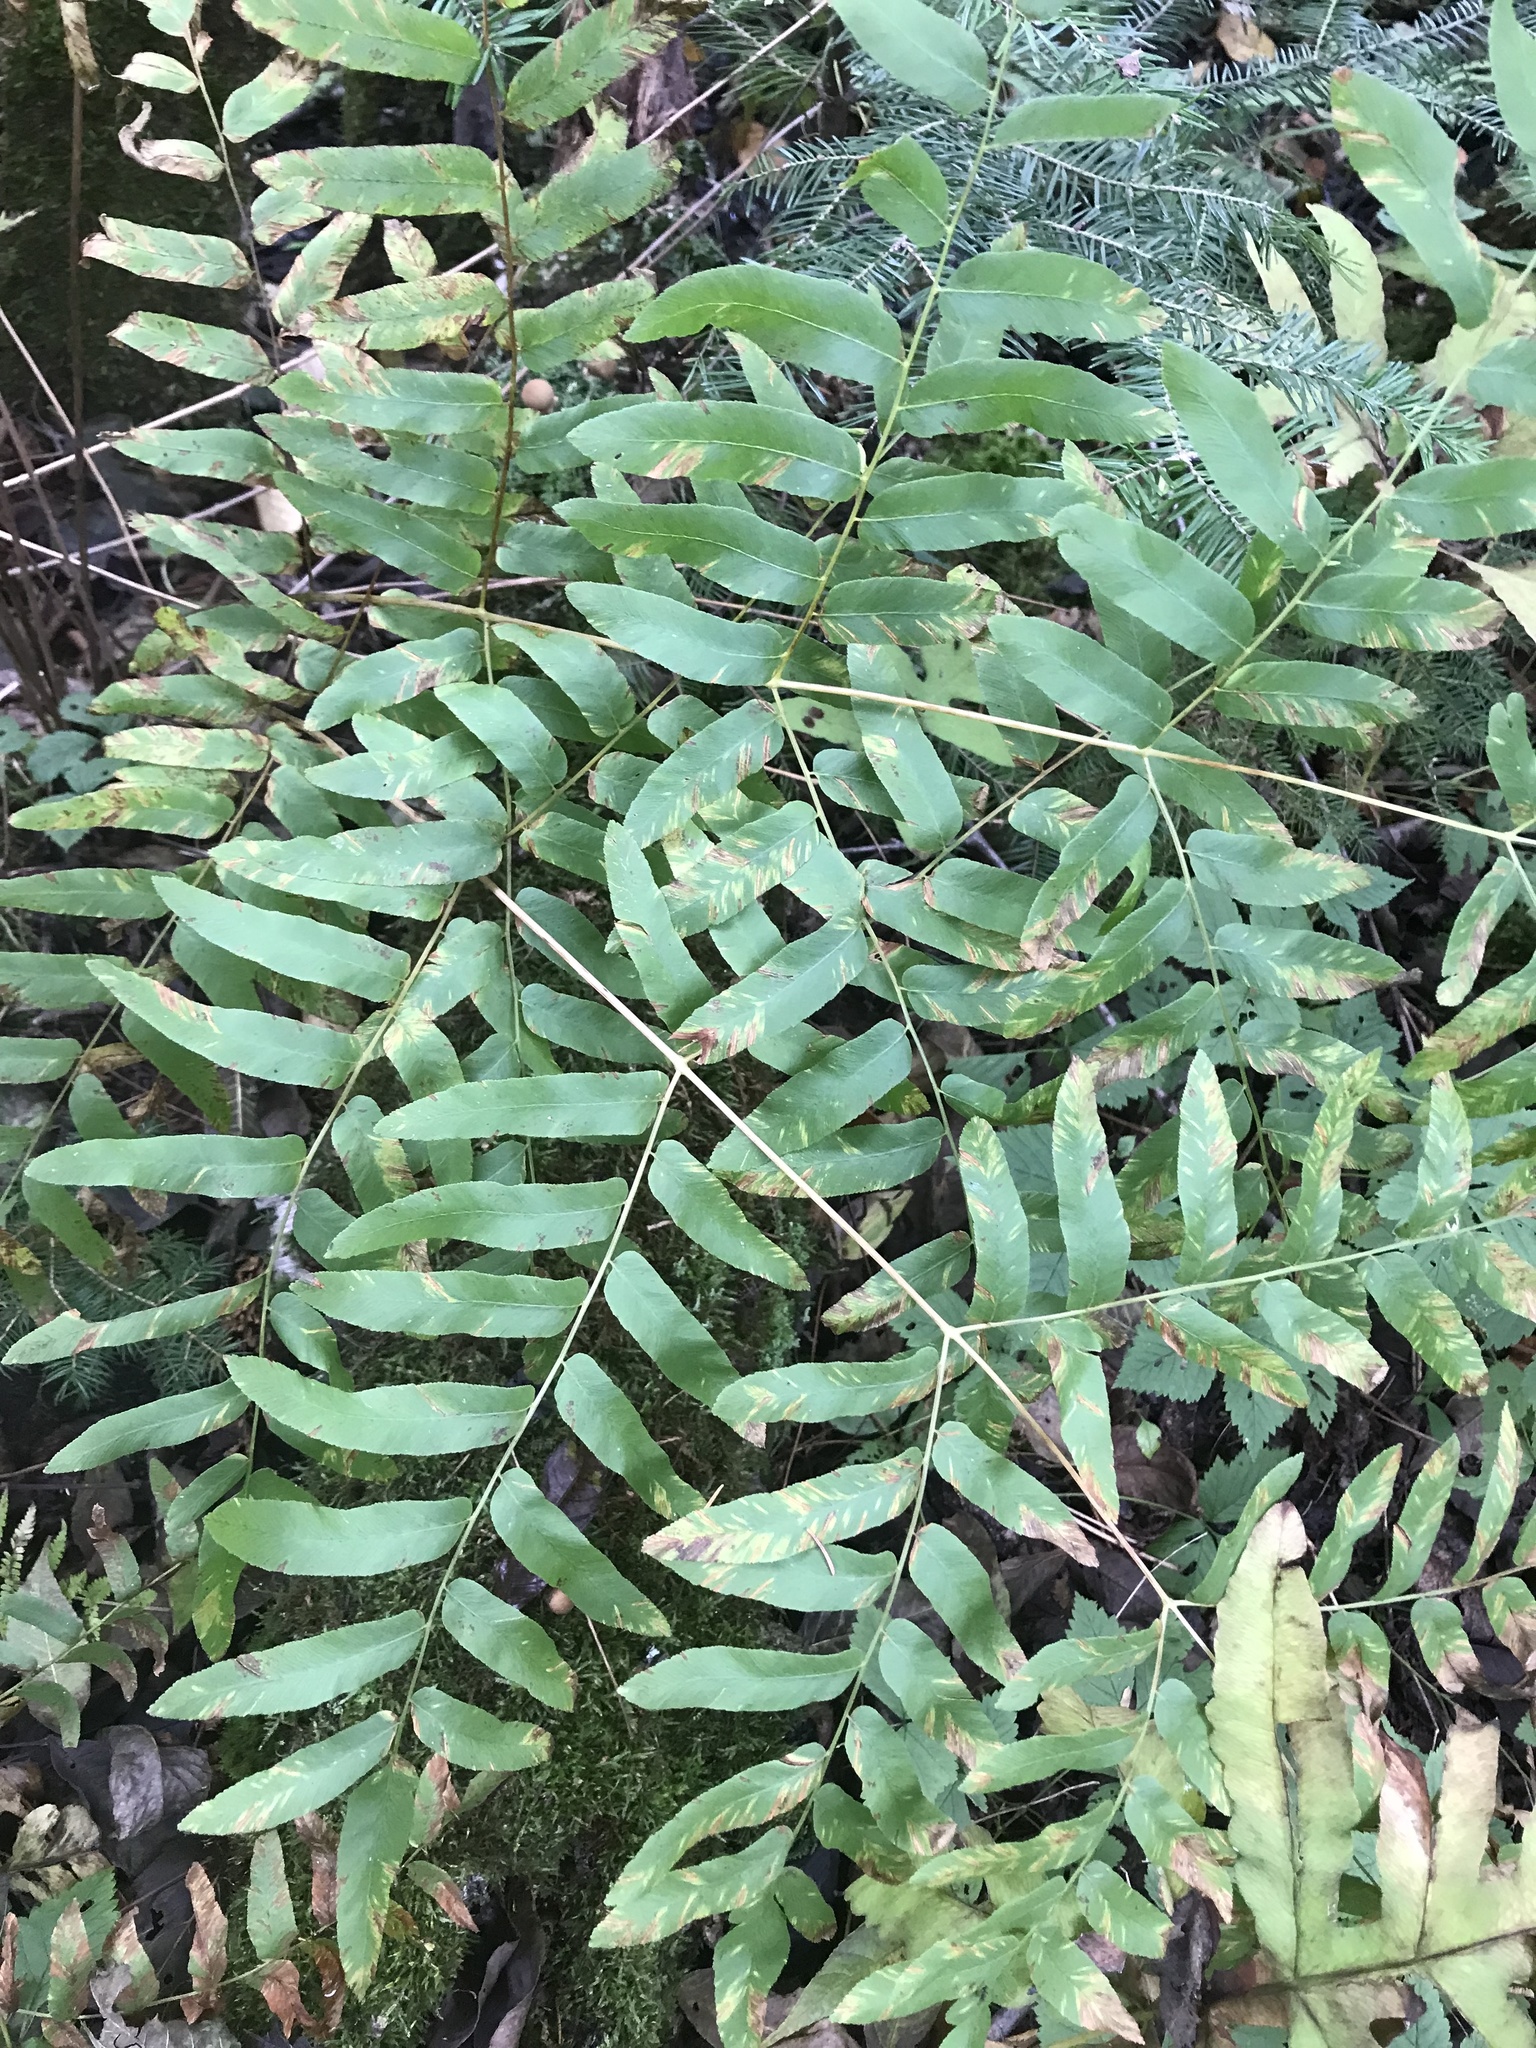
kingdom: Plantae
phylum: Tracheophyta
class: Polypodiopsida
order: Osmundales
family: Osmundaceae
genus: Osmunda
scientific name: Osmunda spectabilis
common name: American royal fern
